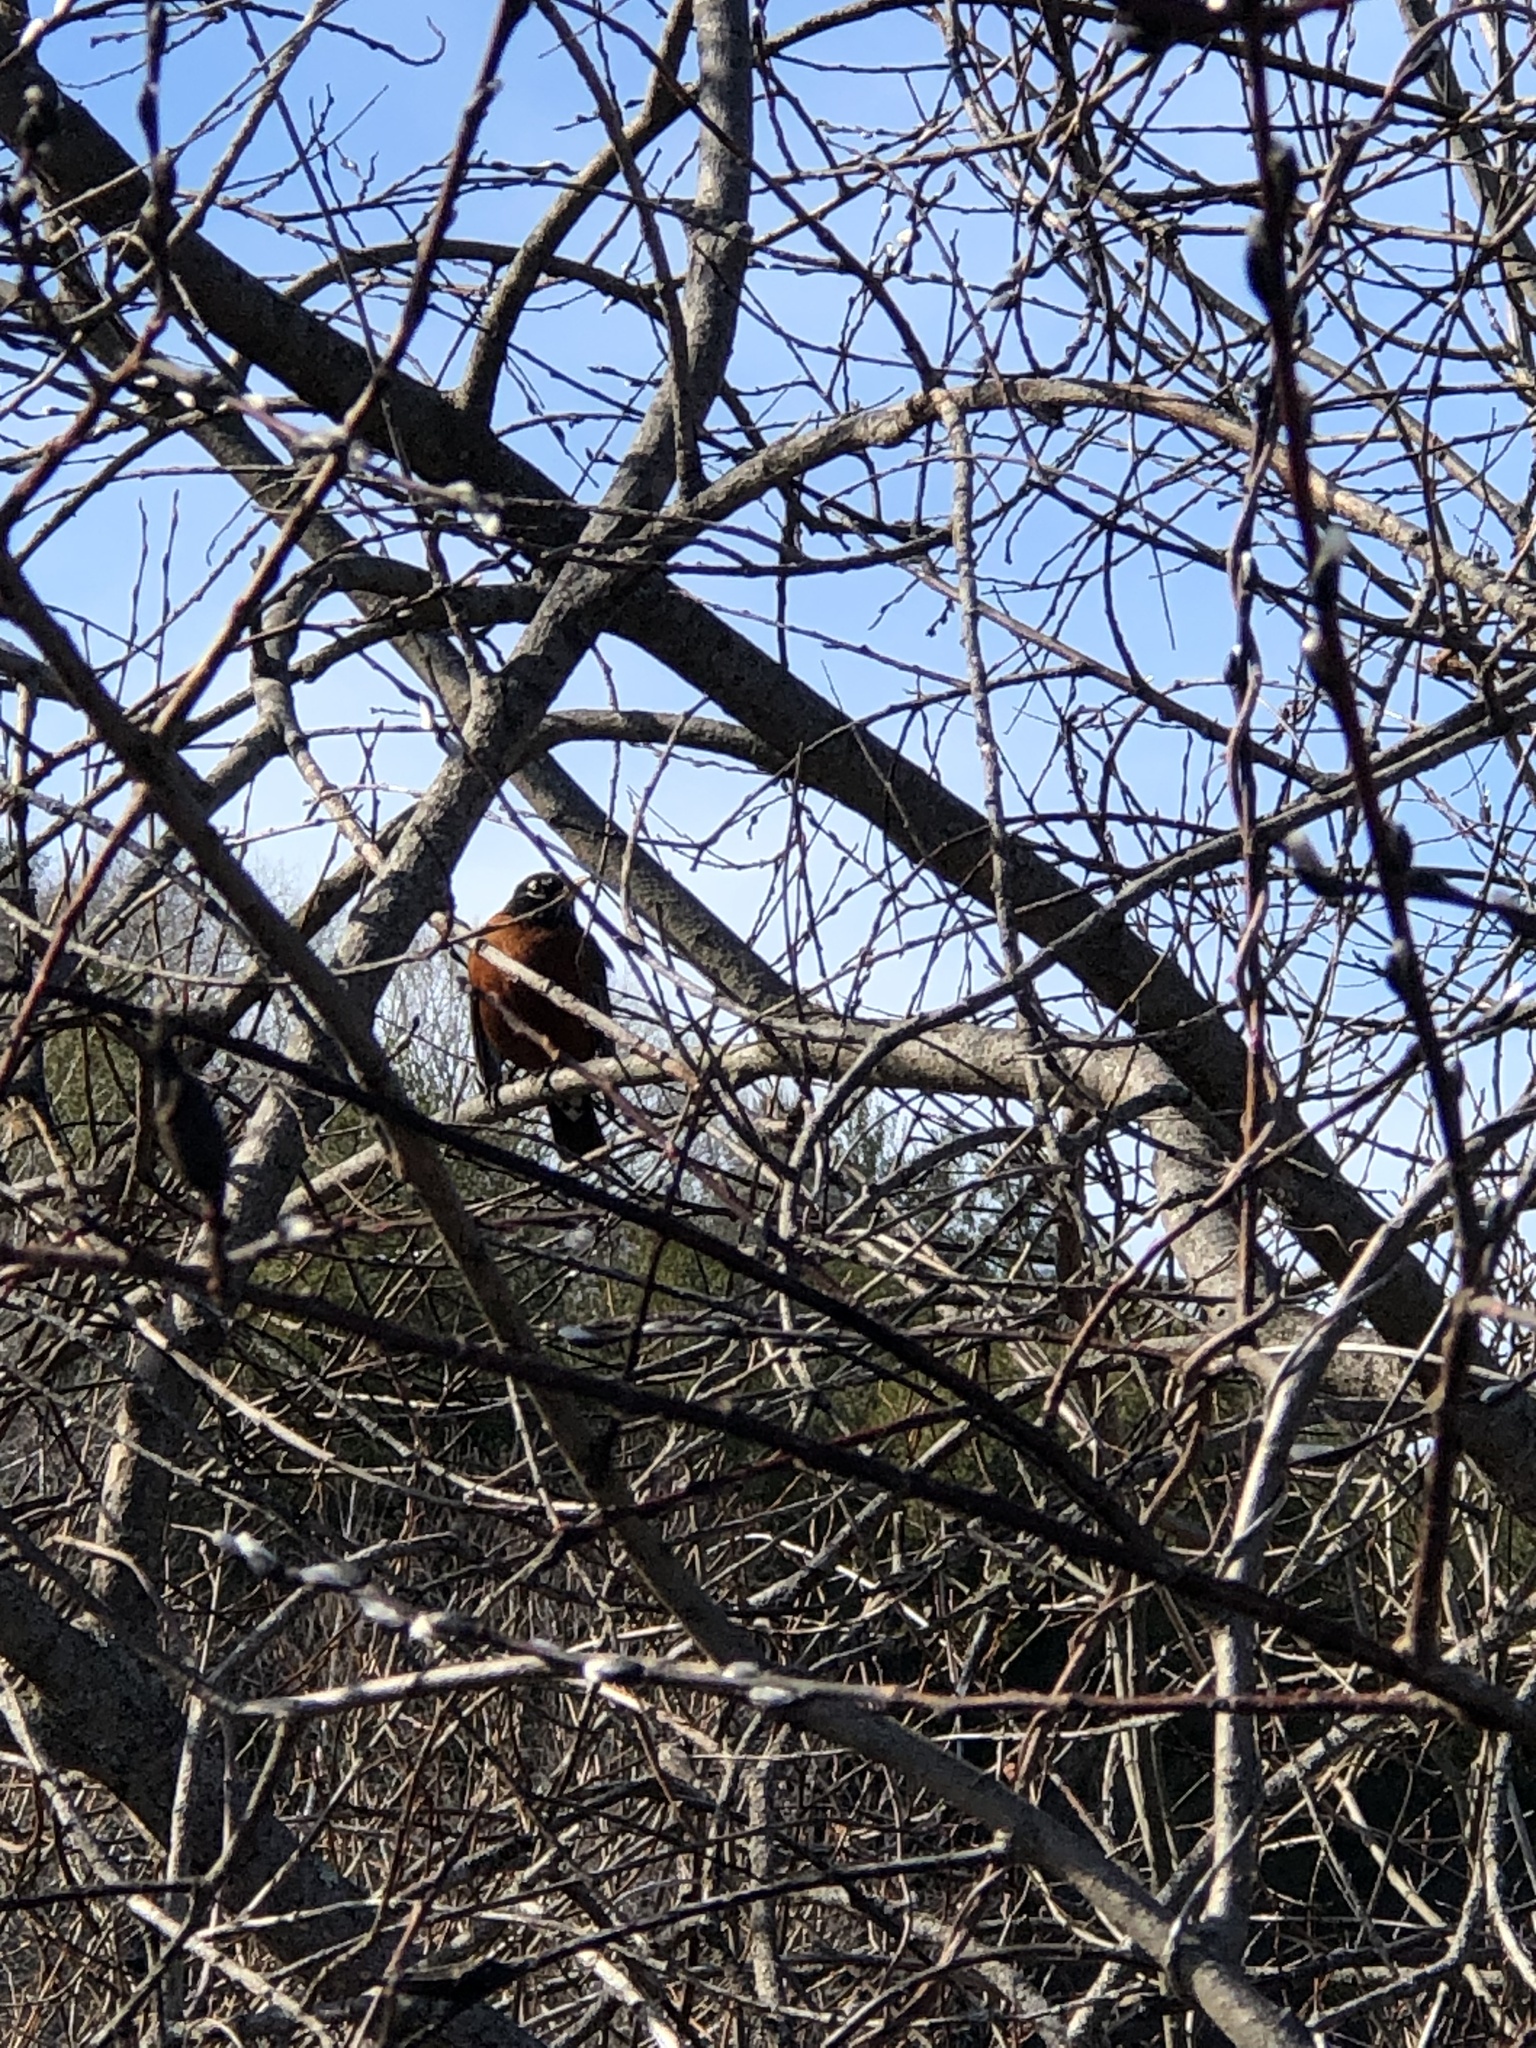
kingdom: Animalia
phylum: Chordata
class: Aves
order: Passeriformes
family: Turdidae
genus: Turdus
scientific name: Turdus migratorius
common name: American robin
